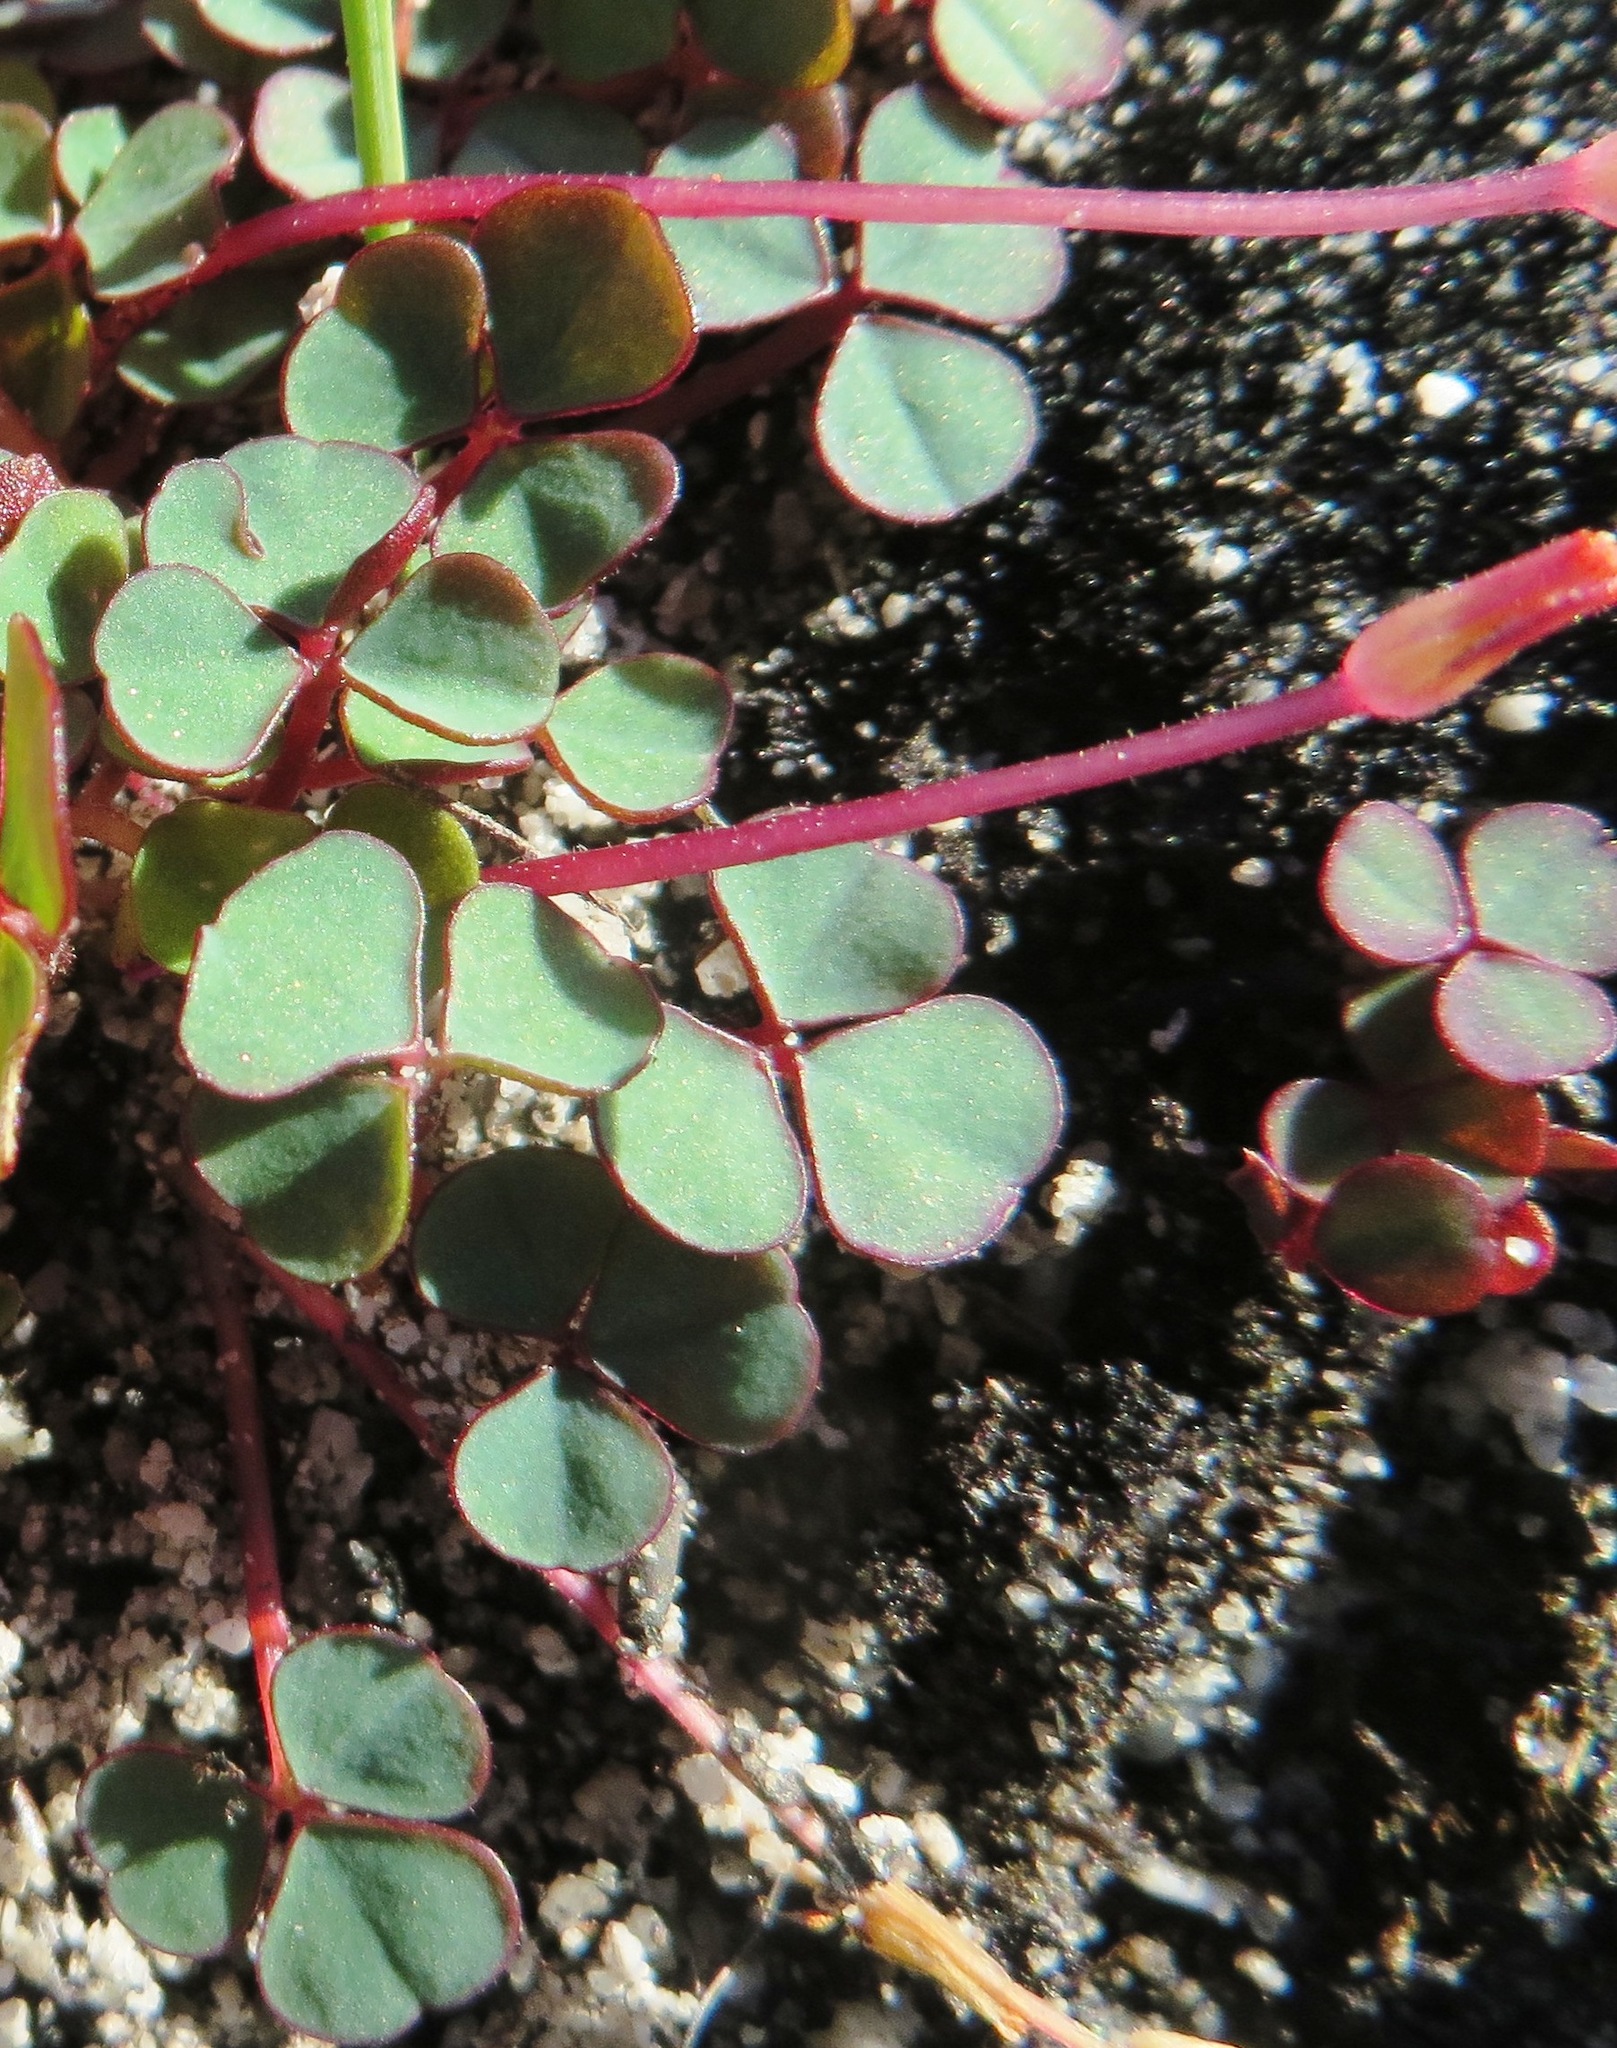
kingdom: Plantae
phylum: Tracheophyta
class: Magnoliopsida
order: Oxalidales
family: Oxalidaceae
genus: Oxalis
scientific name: Oxalis commutata
